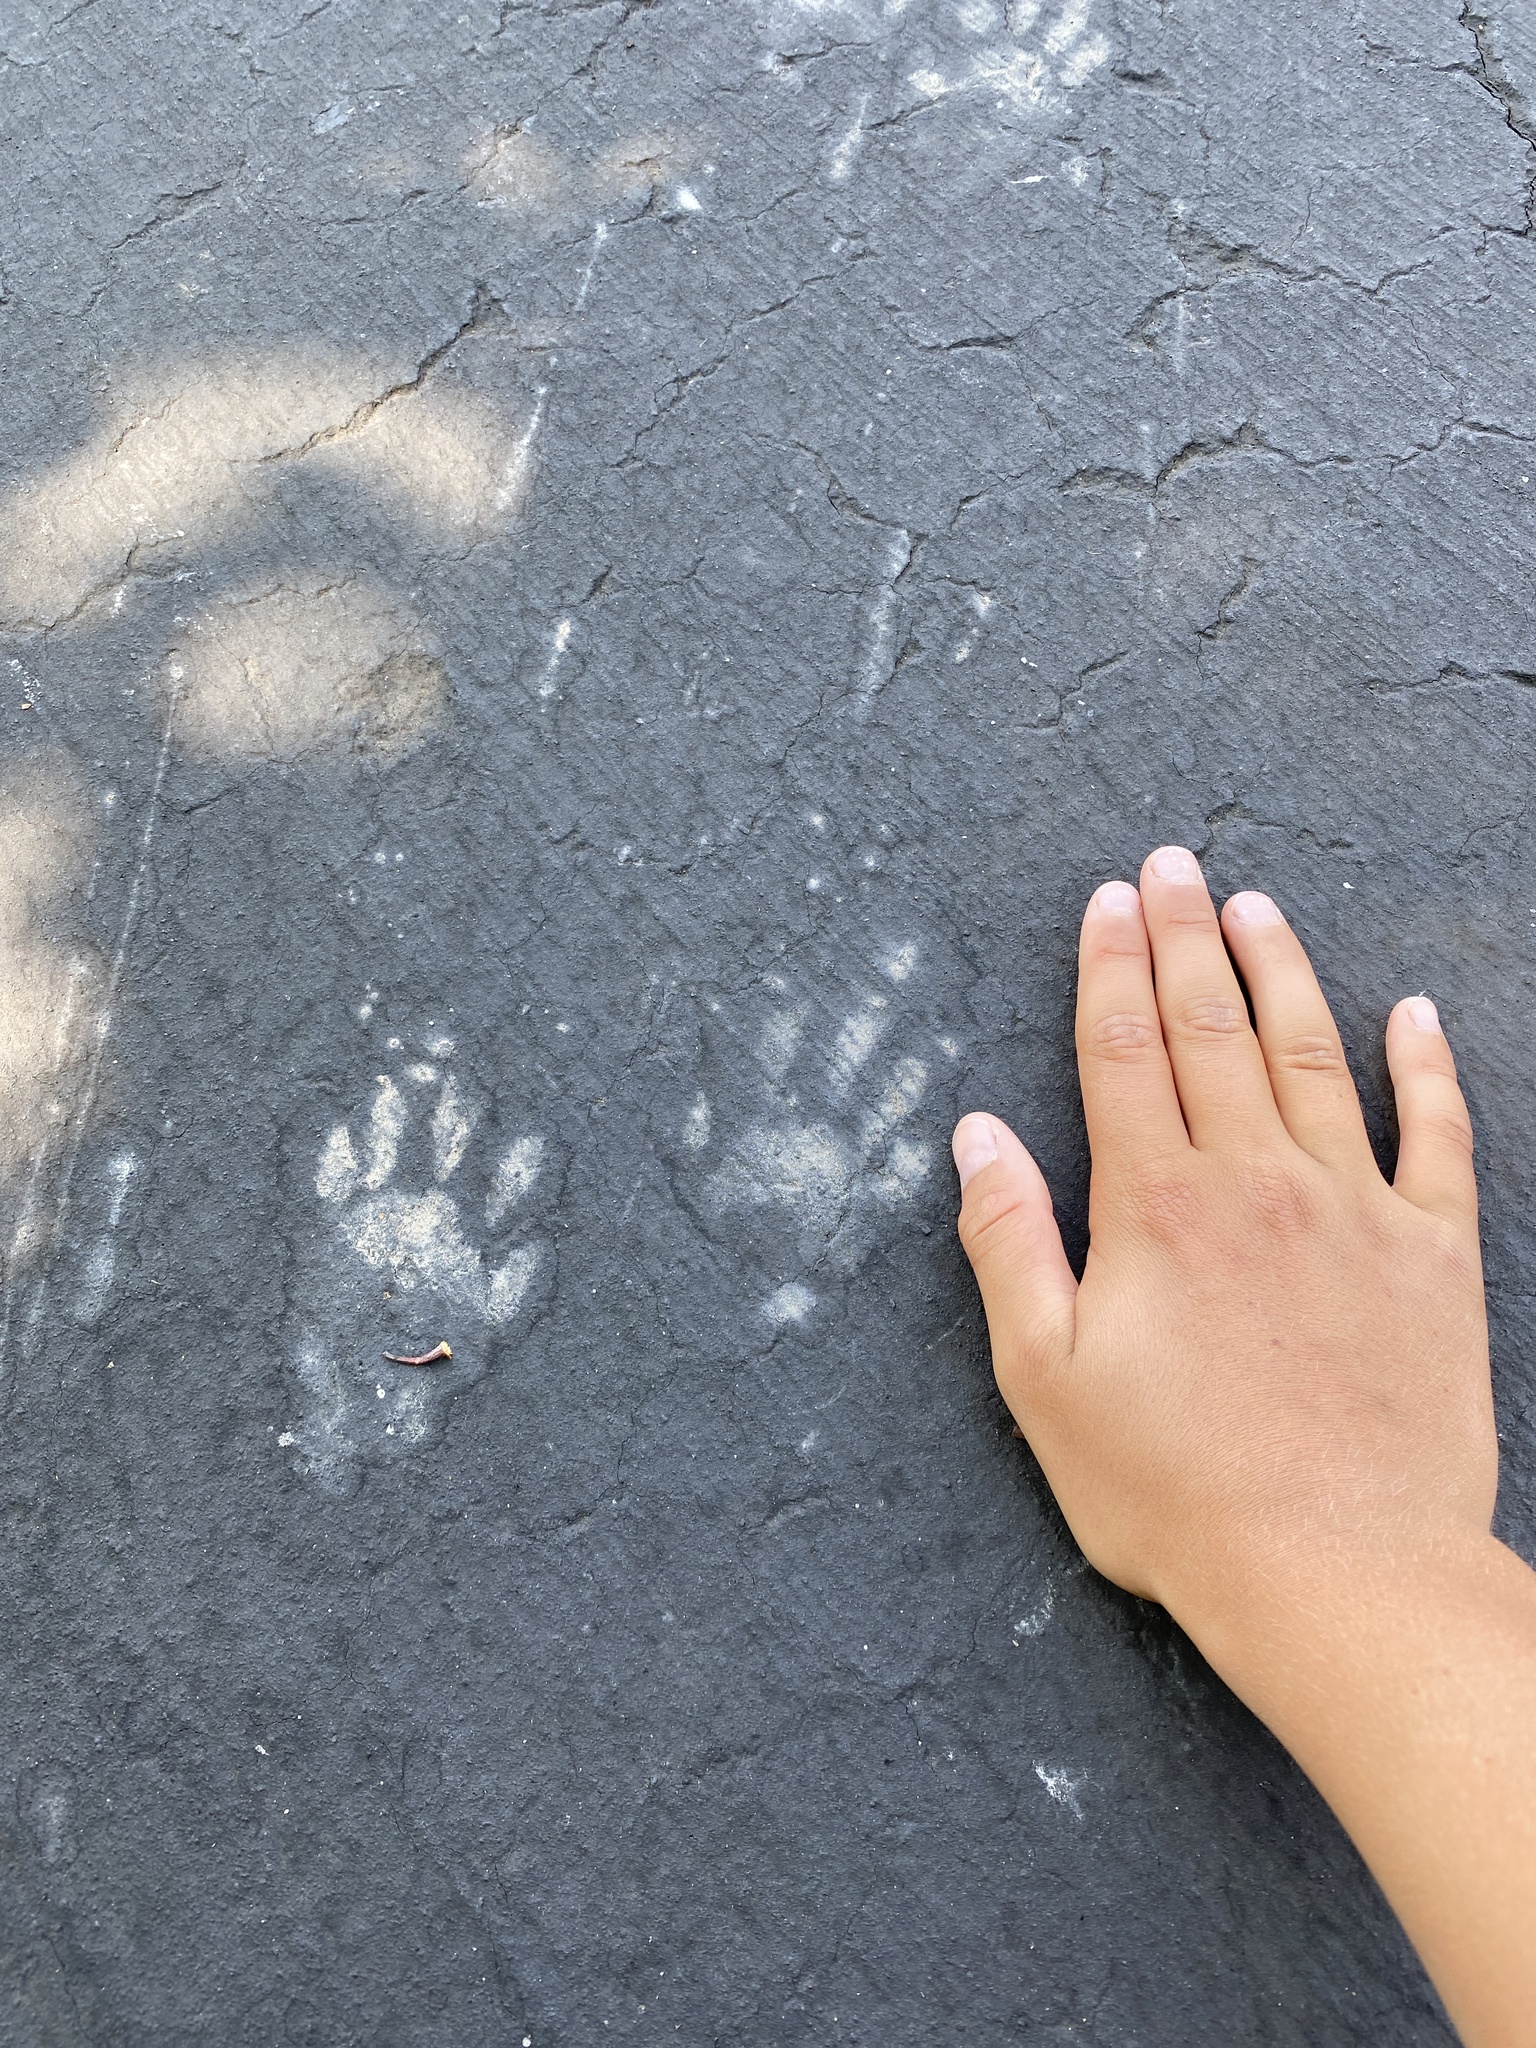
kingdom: Animalia
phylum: Chordata
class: Mammalia
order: Carnivora
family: Procyonidae
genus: Procyon
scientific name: Procyon lotor
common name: Raccoon
